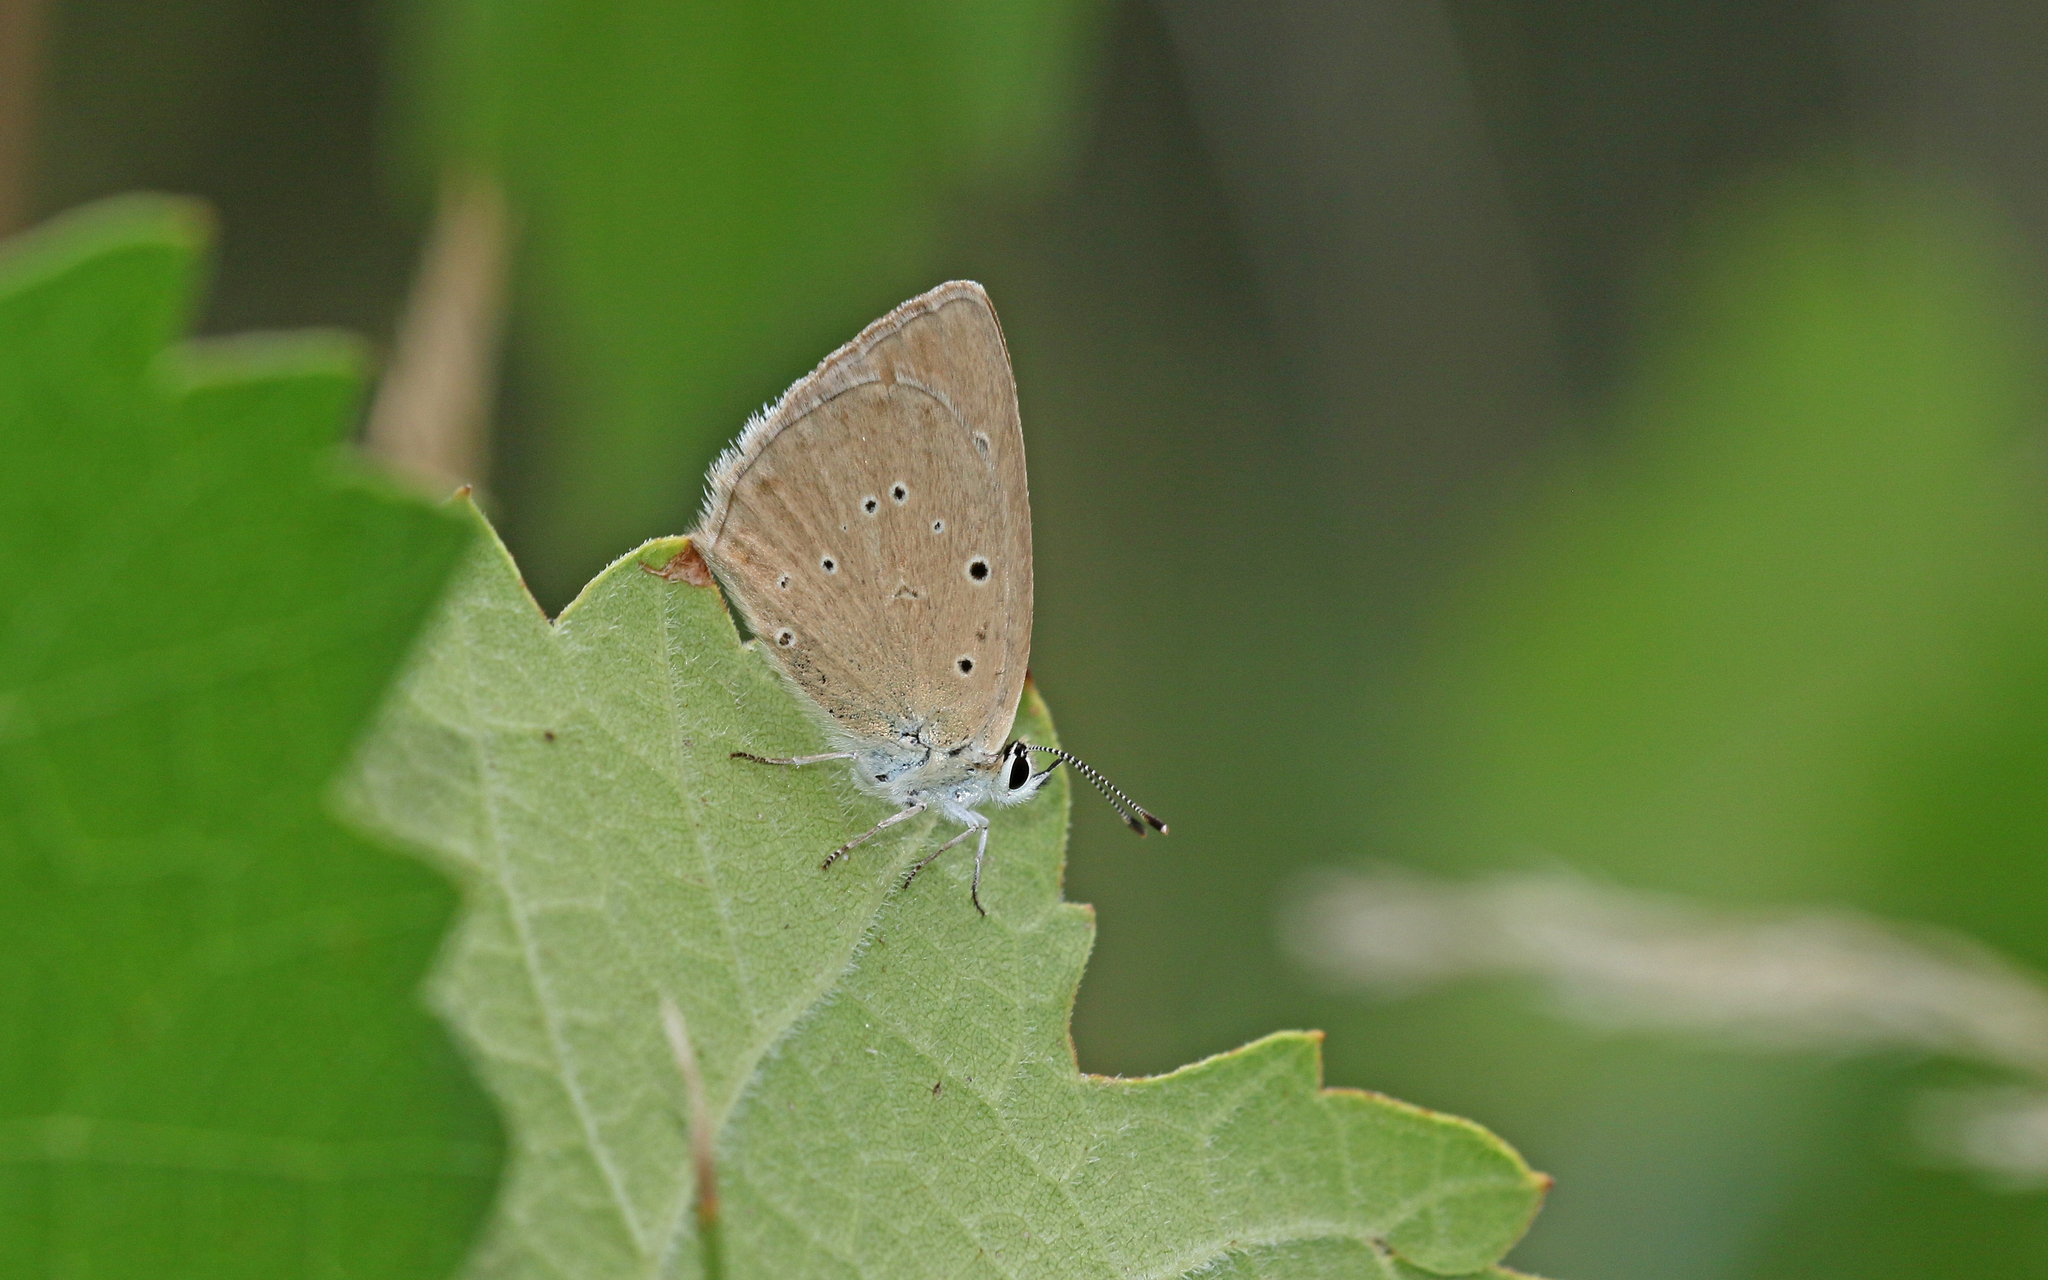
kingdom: Animalia
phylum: Arthropoda
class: Insecta
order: Lepidoptera
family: Lycaenidae
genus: Agrodiaetus
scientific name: Agrodiaetus humedasae
